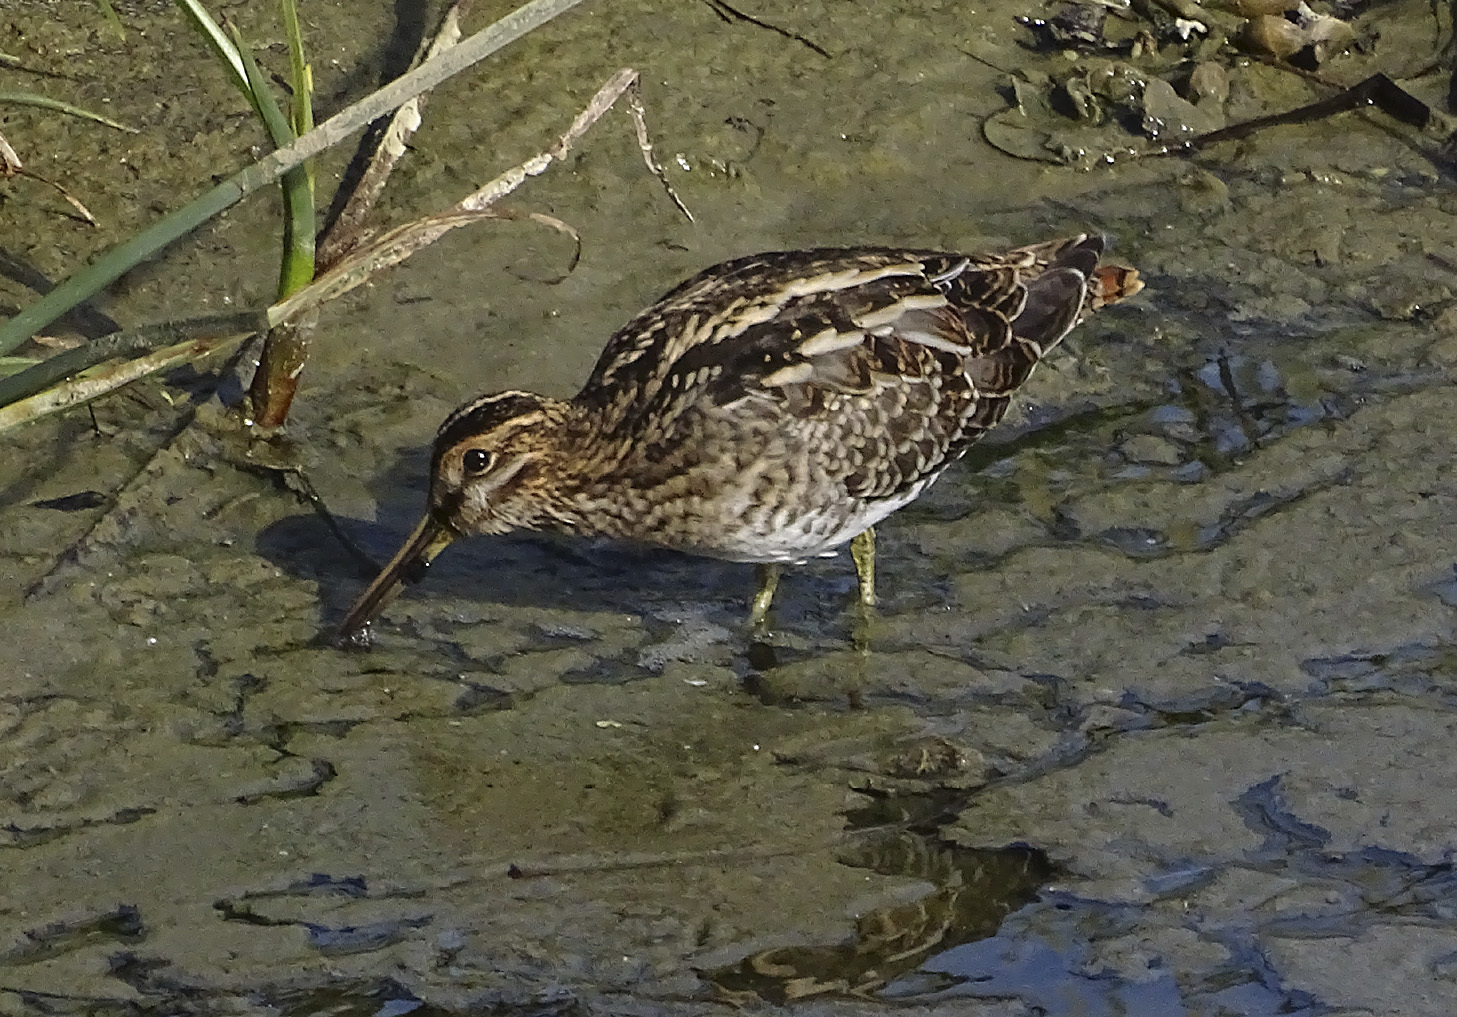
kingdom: Animalia
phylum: Chordata
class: Aves
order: Charadriiformes
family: Scolopacidae
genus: Gallinago
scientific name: Gallinago delicata
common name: Wilson's snipe
